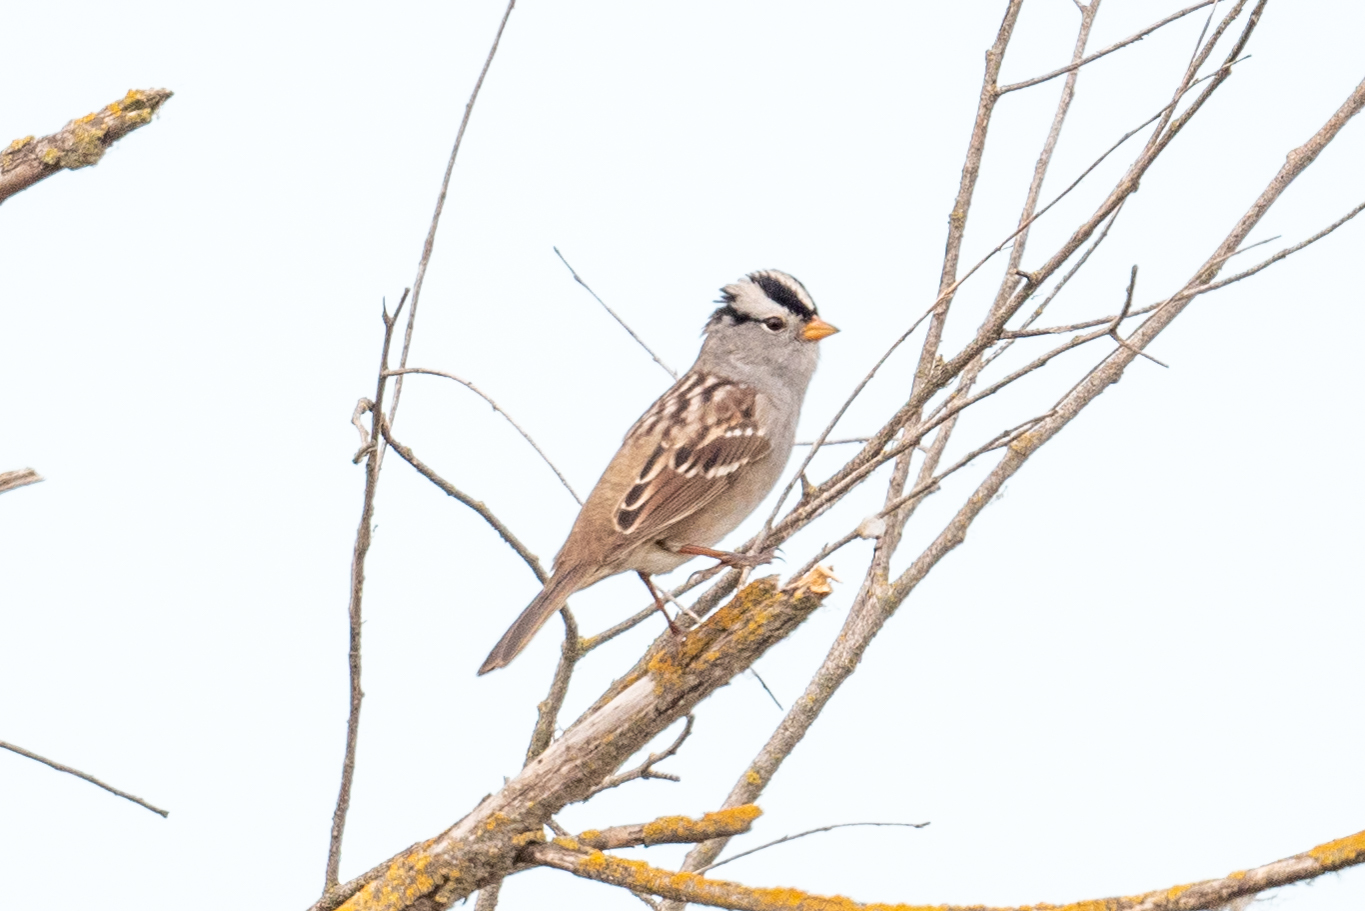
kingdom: Animalia
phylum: Chordata
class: Aves
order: Passeriformes
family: Passerellidae
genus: Zonotrichia
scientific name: Zonotrichia leucophrys
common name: White-crowned sparrow
